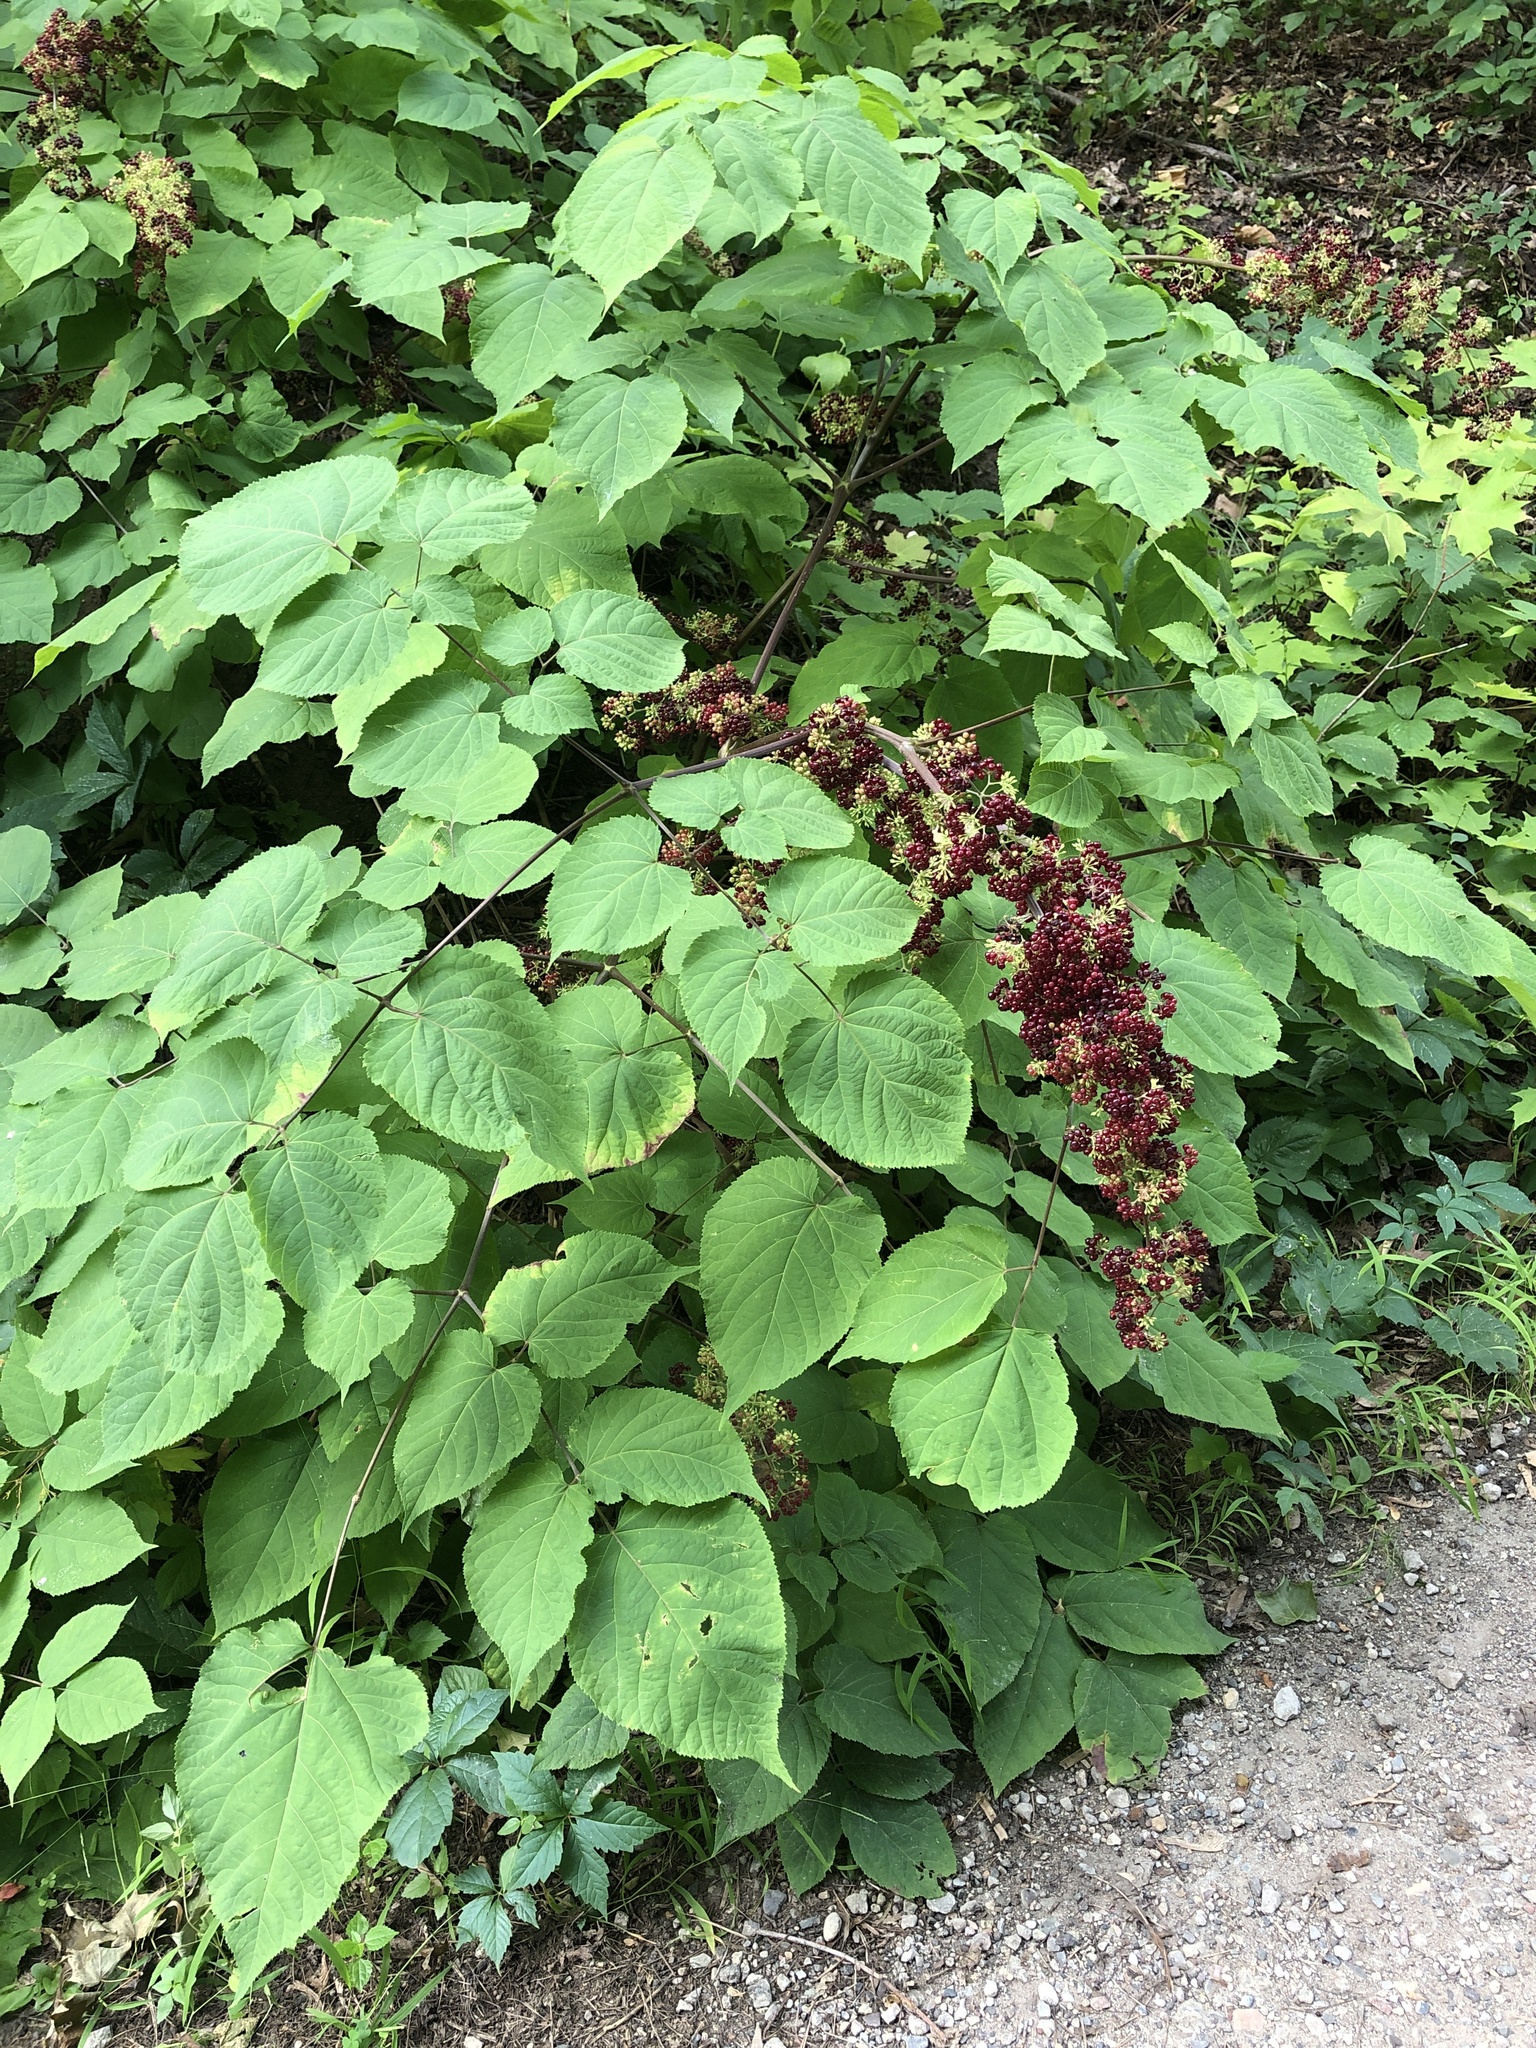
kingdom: Plantae
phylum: Tracheophyta
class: Magnoliopsida
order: Apiales
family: Araliaceae
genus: Aralia
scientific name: Aralia racemosa
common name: American-spikenard
